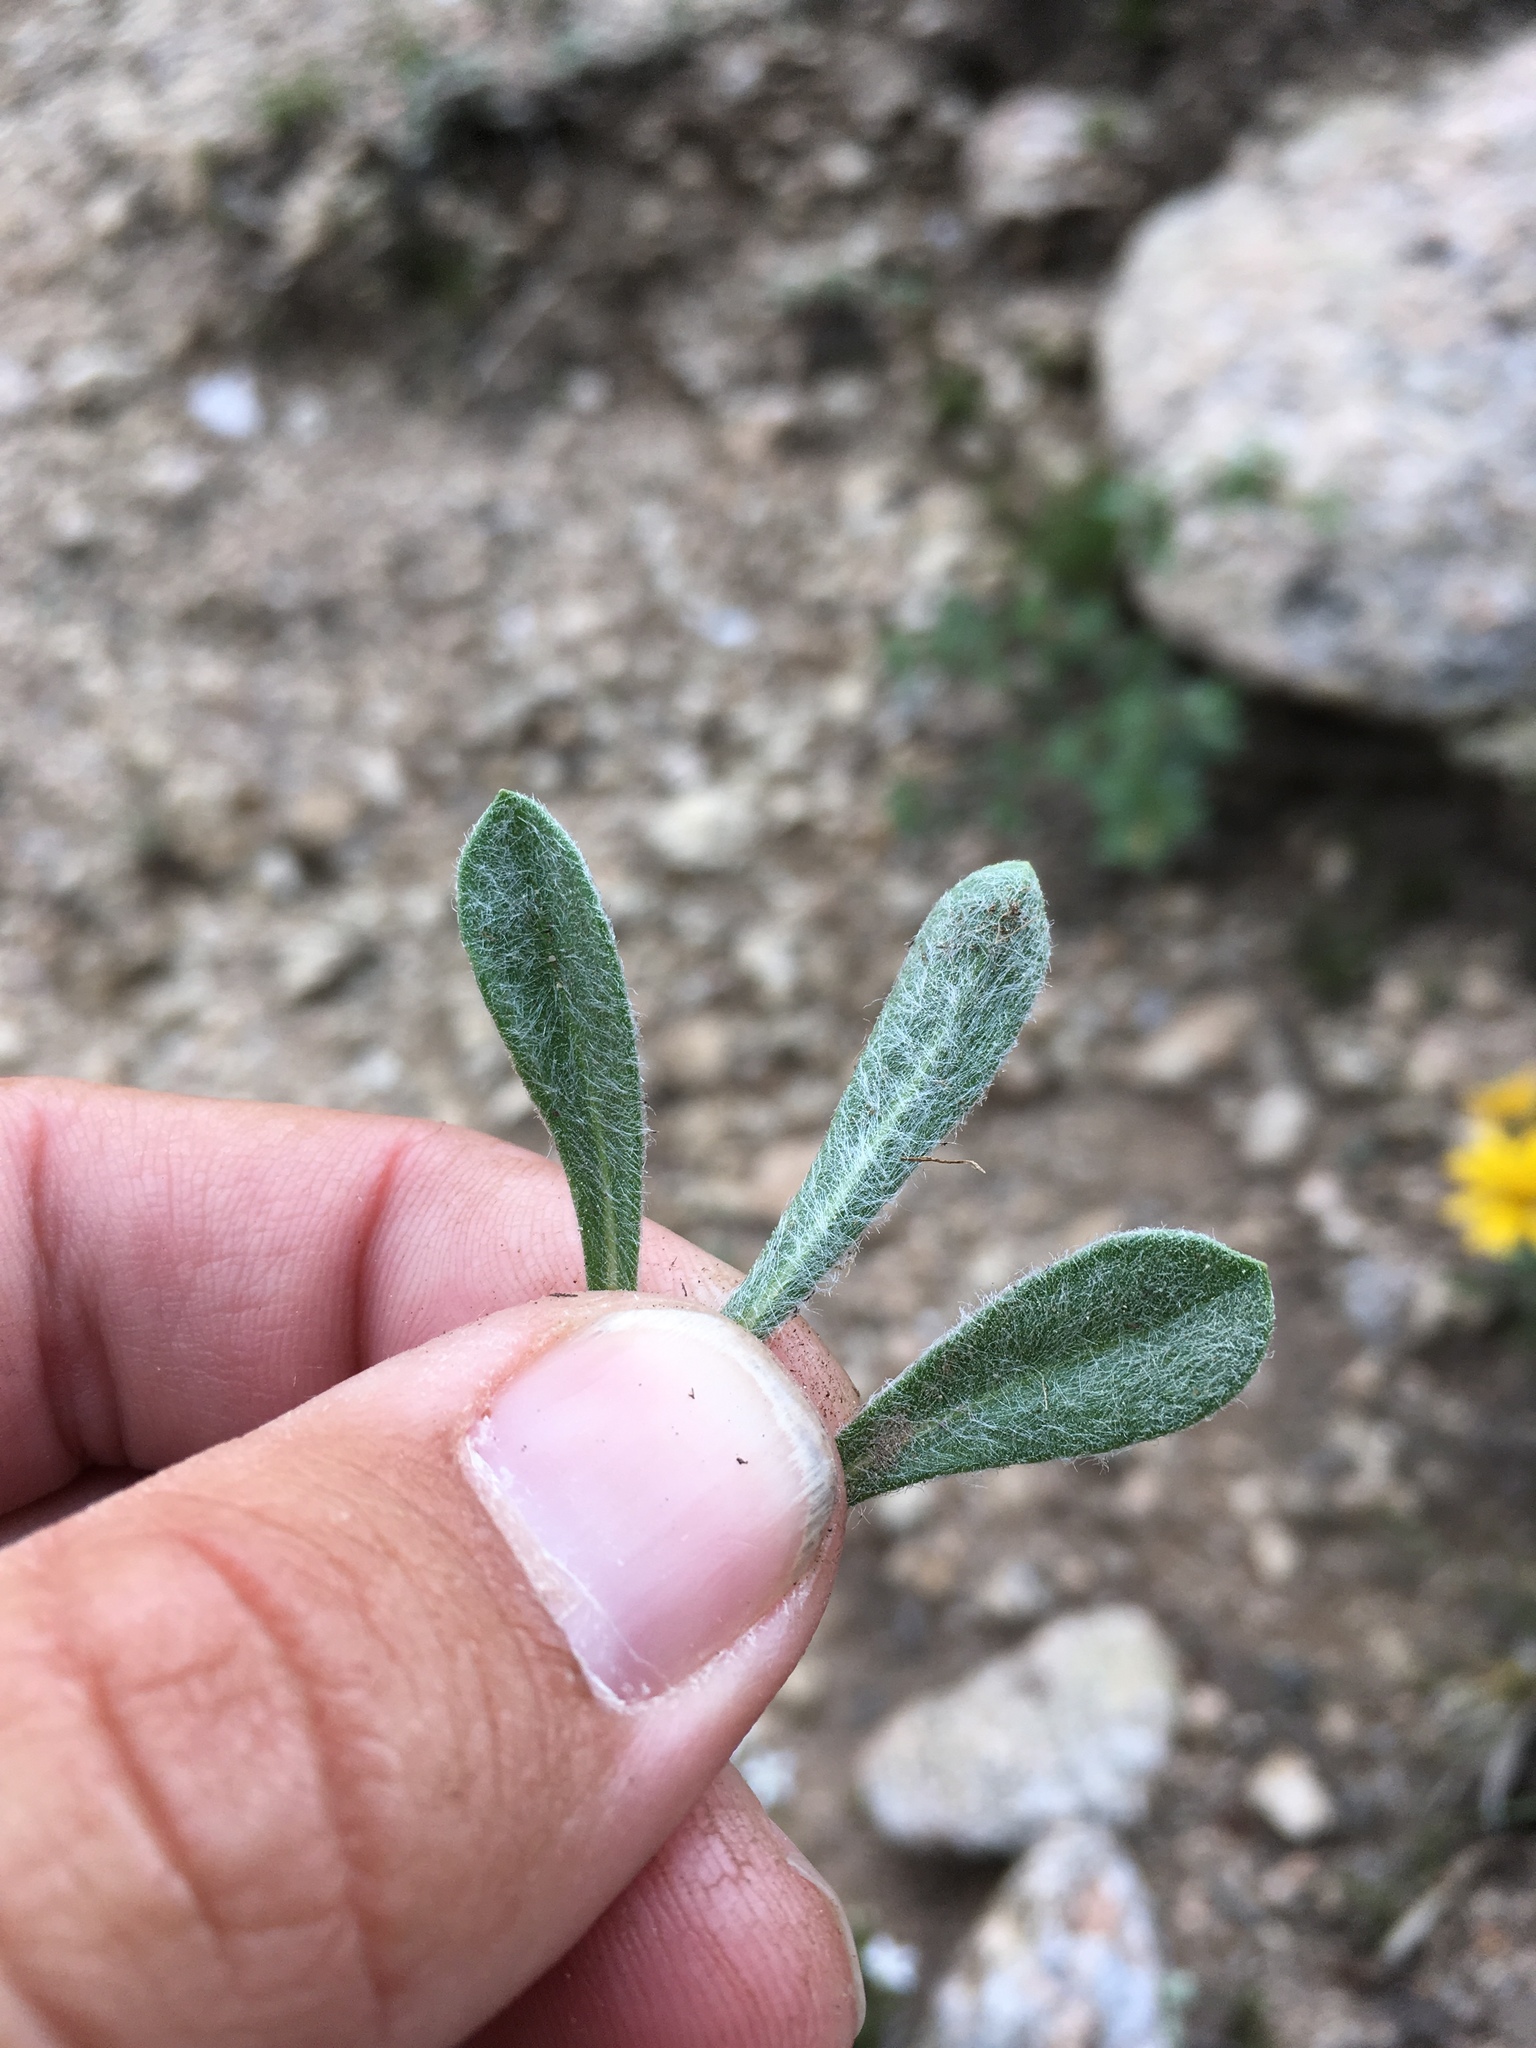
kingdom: Plantae
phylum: Tracheophyta
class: Magnoliopsida
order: Asterales
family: Asteraceae
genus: Tetraneuris
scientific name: Tetraneuris acaulis
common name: Butte marigold
